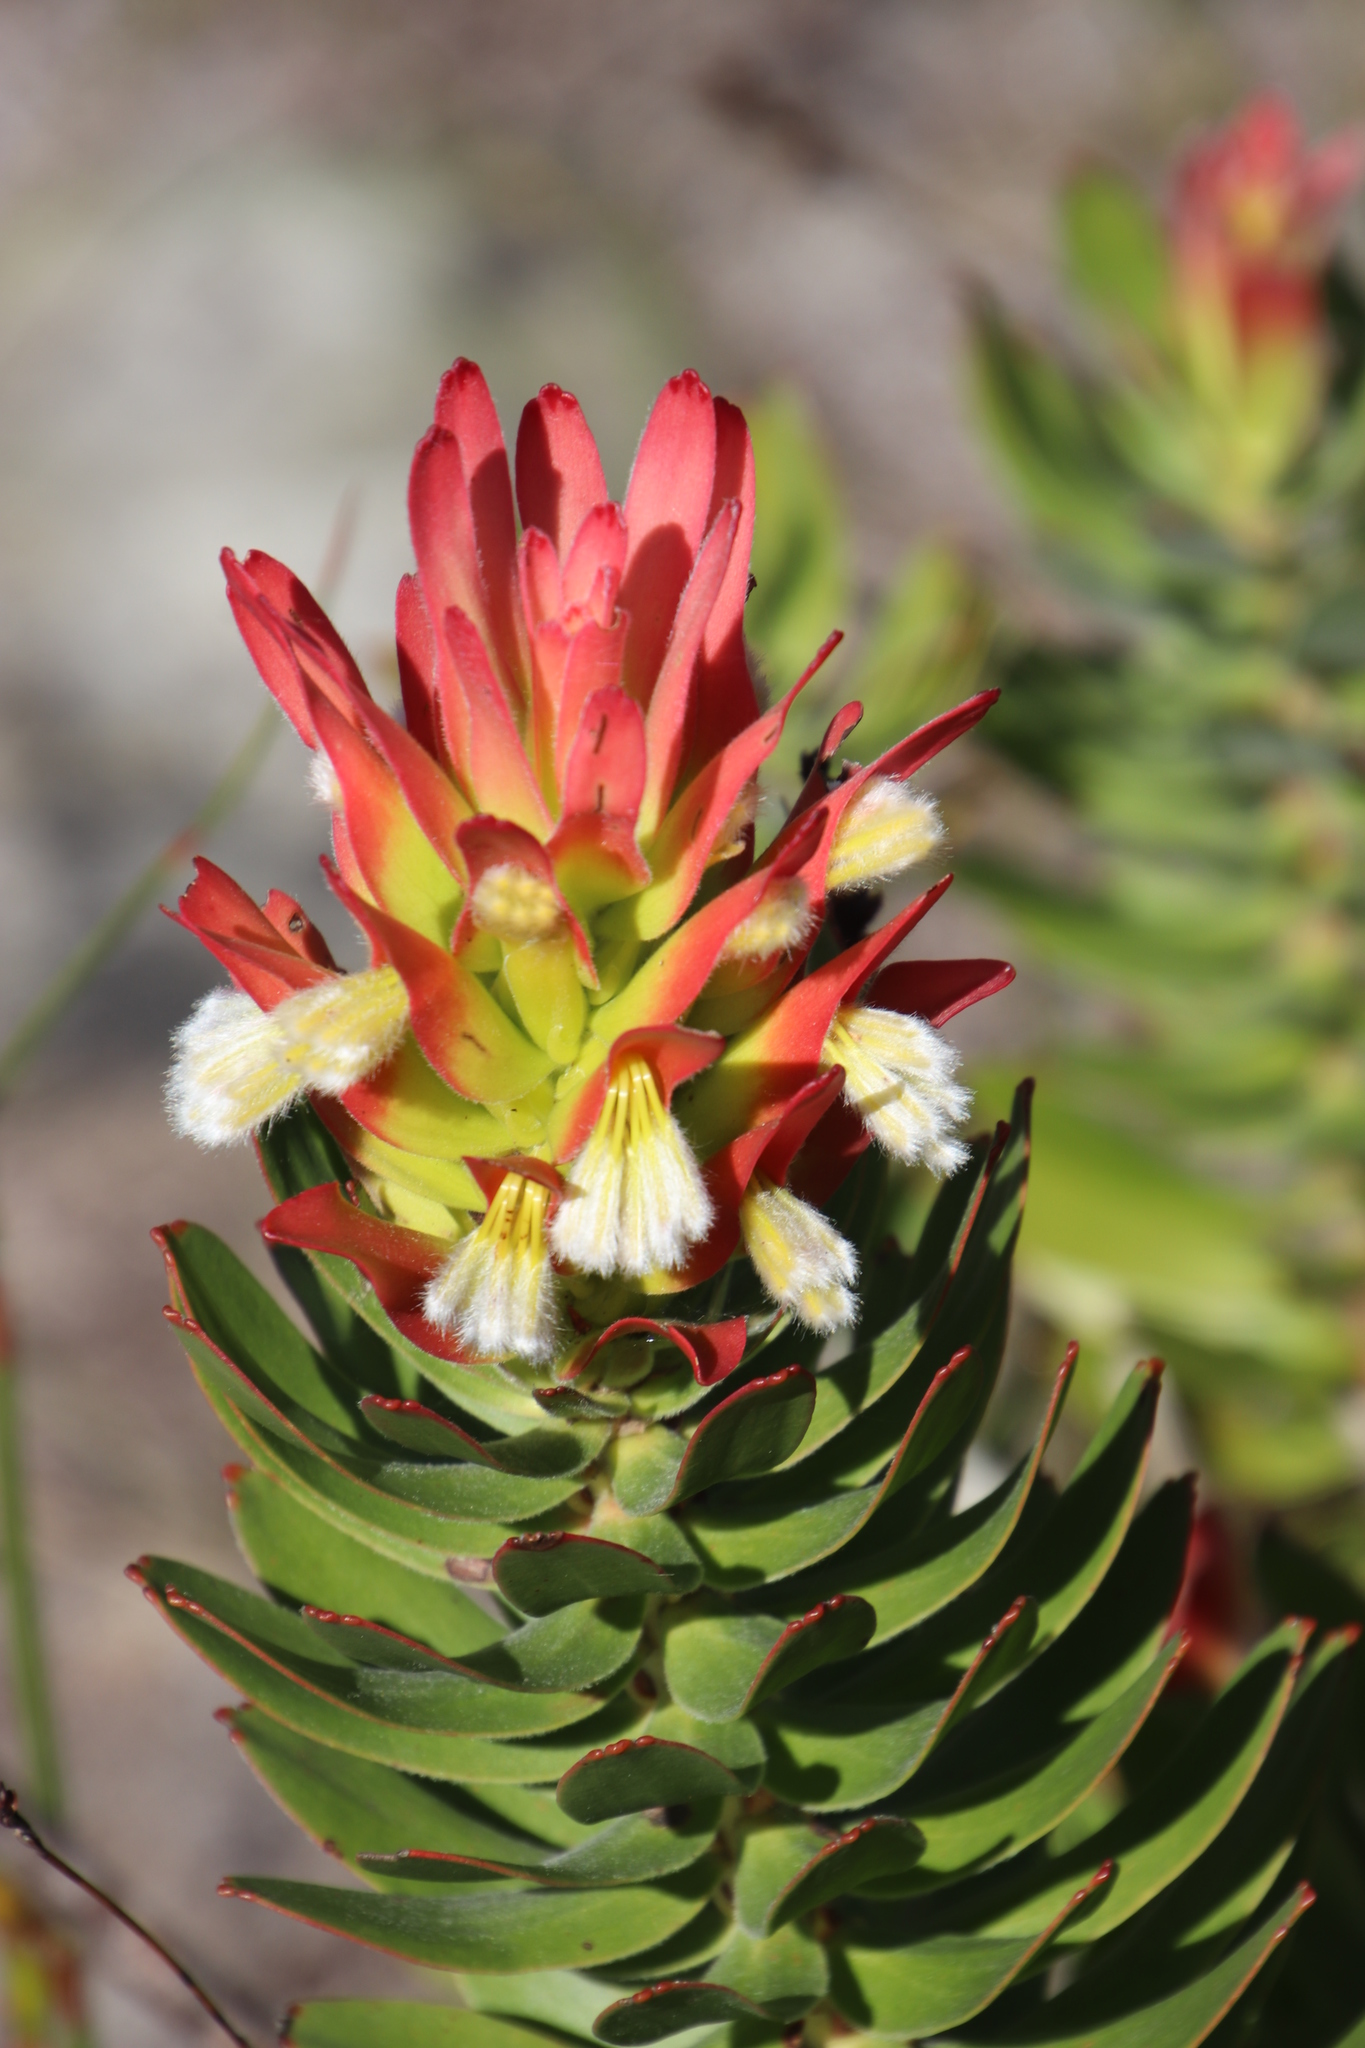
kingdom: Plantae
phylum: Tracheophyta
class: Magnoliopsida
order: Proteales
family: Proteaceae
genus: Mimetes
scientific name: Mimetes cucullatus
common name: Common pagoda
